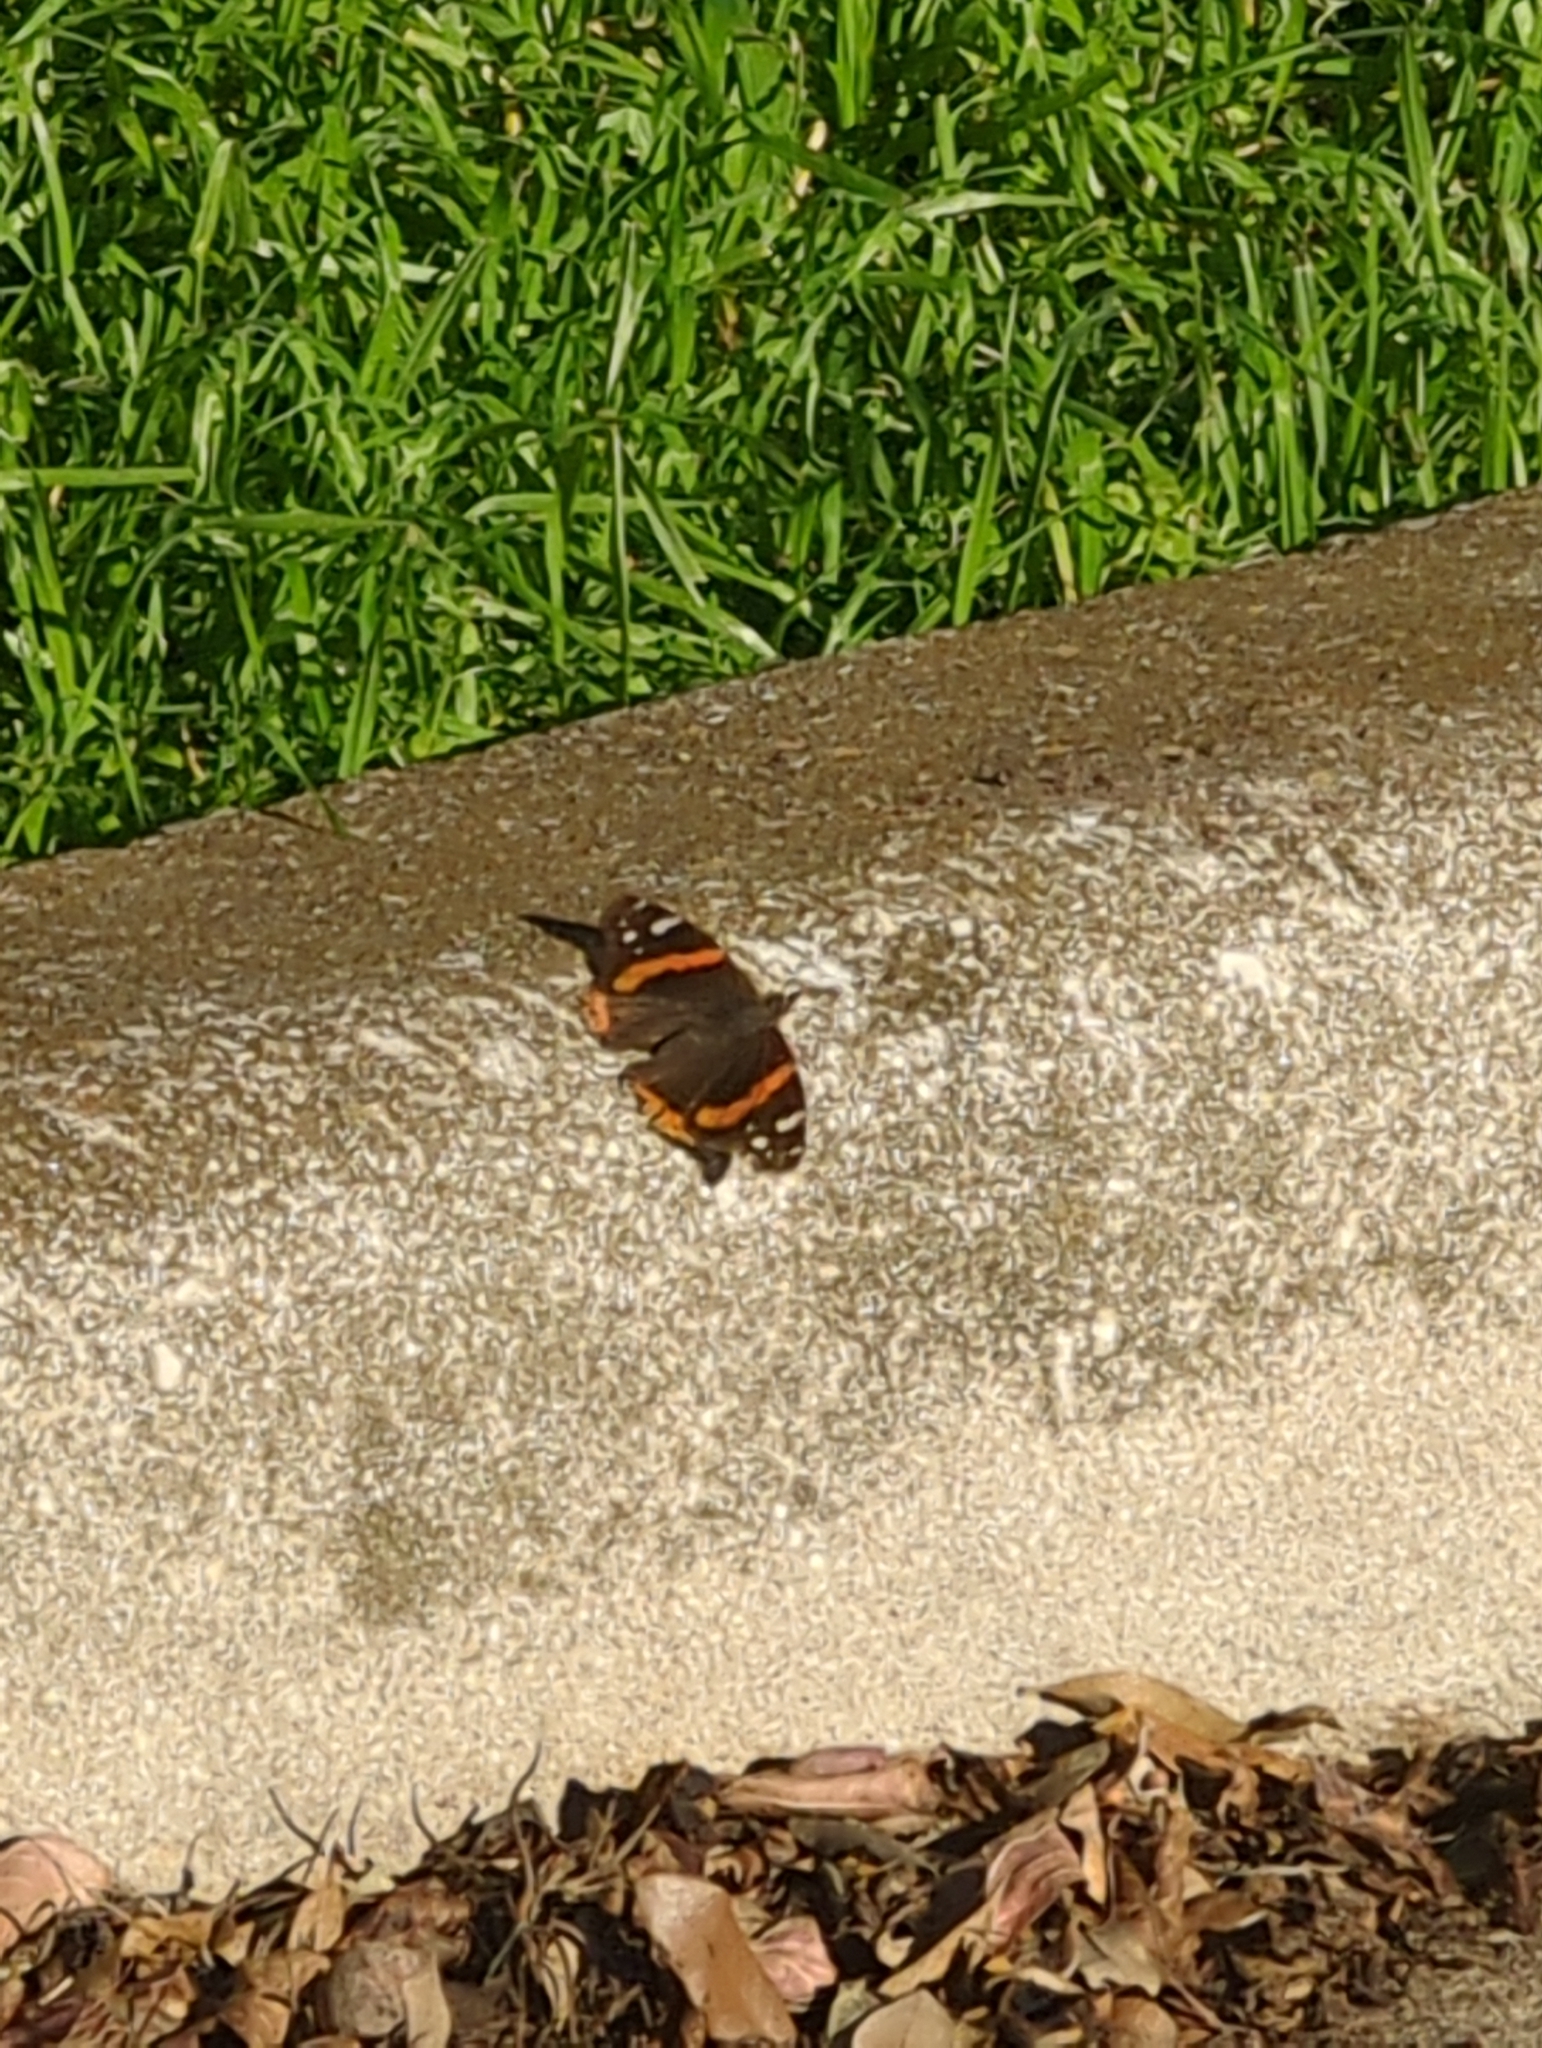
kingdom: Animalia
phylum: Arthropoda
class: Insecta
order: Lepidoptera
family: Nymphalidae
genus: Vanessa
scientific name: Vanessa atalanta
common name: Red admiral
